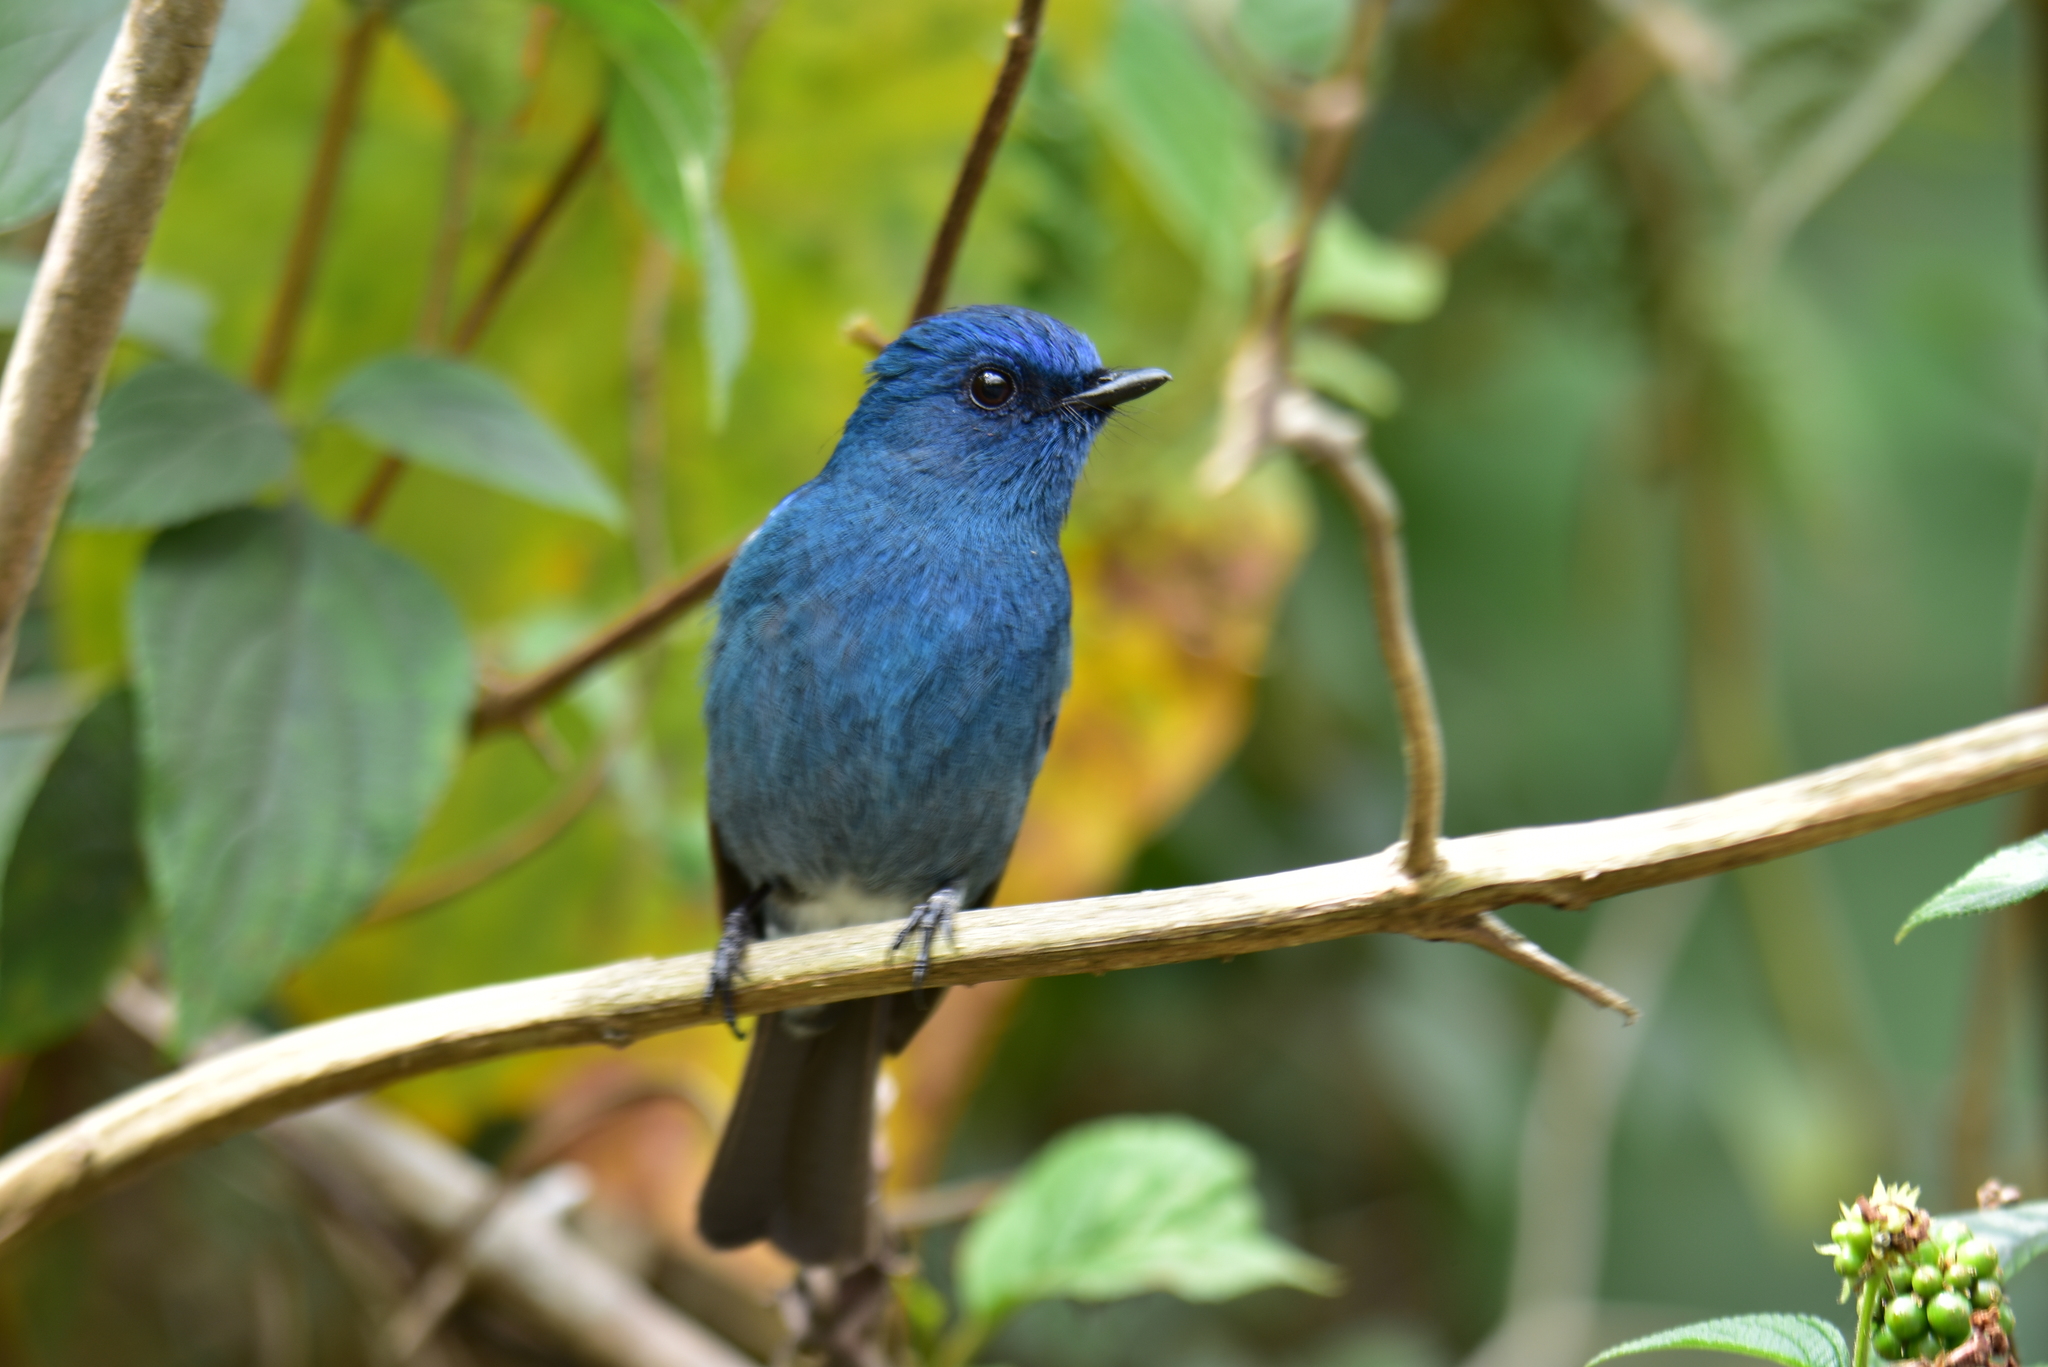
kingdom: Animalia
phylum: Chordata
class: Aves
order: Passeriformes
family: Muscicapidae
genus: Eumyias
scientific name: Eumyias albicaudatus
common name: Nilgiri flycatcher
